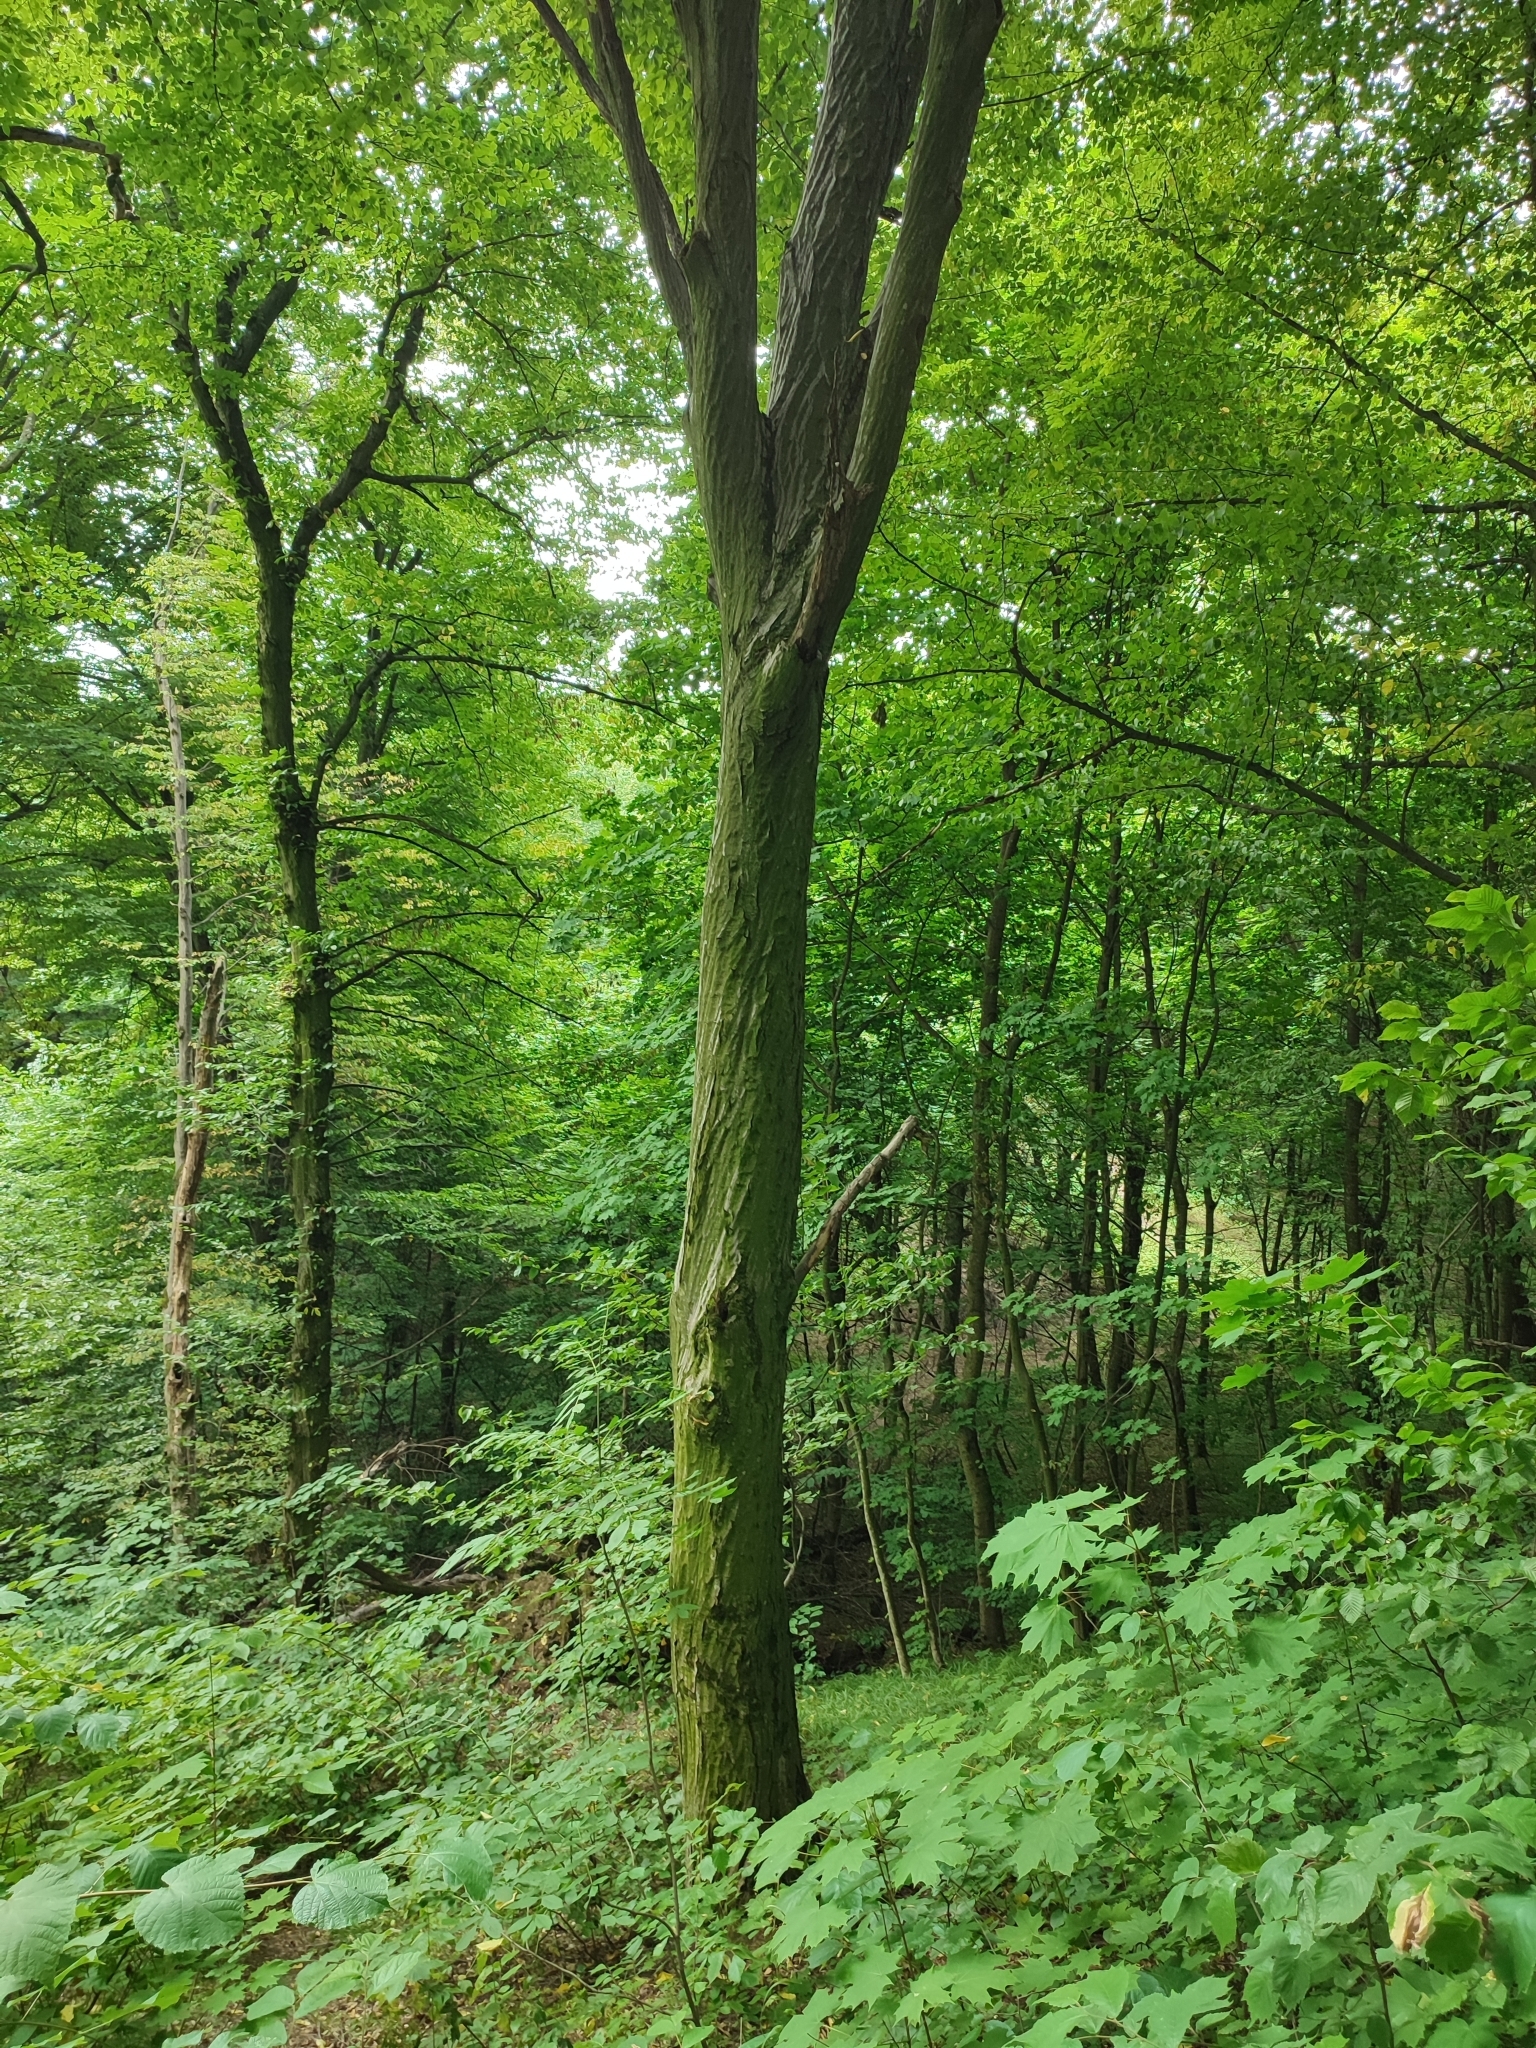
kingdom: Plantae
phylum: Tracheophyta
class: Magnoliopsida
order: Fagales
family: Betulaceae
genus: Carpinus
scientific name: Carpinus betulus
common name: Hornbeam
